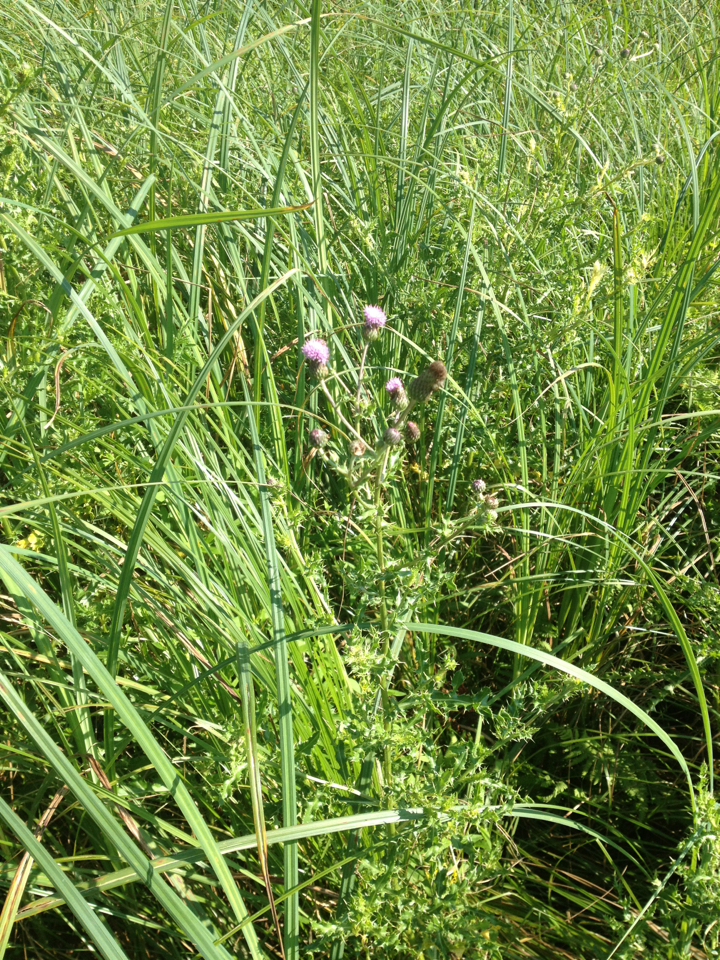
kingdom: Plantae
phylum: Tracheophyta
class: Magnoliopsida
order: Asterales
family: Asteraceae
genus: Cirsium
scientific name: Cirsium arvense
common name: Creeping thistle
